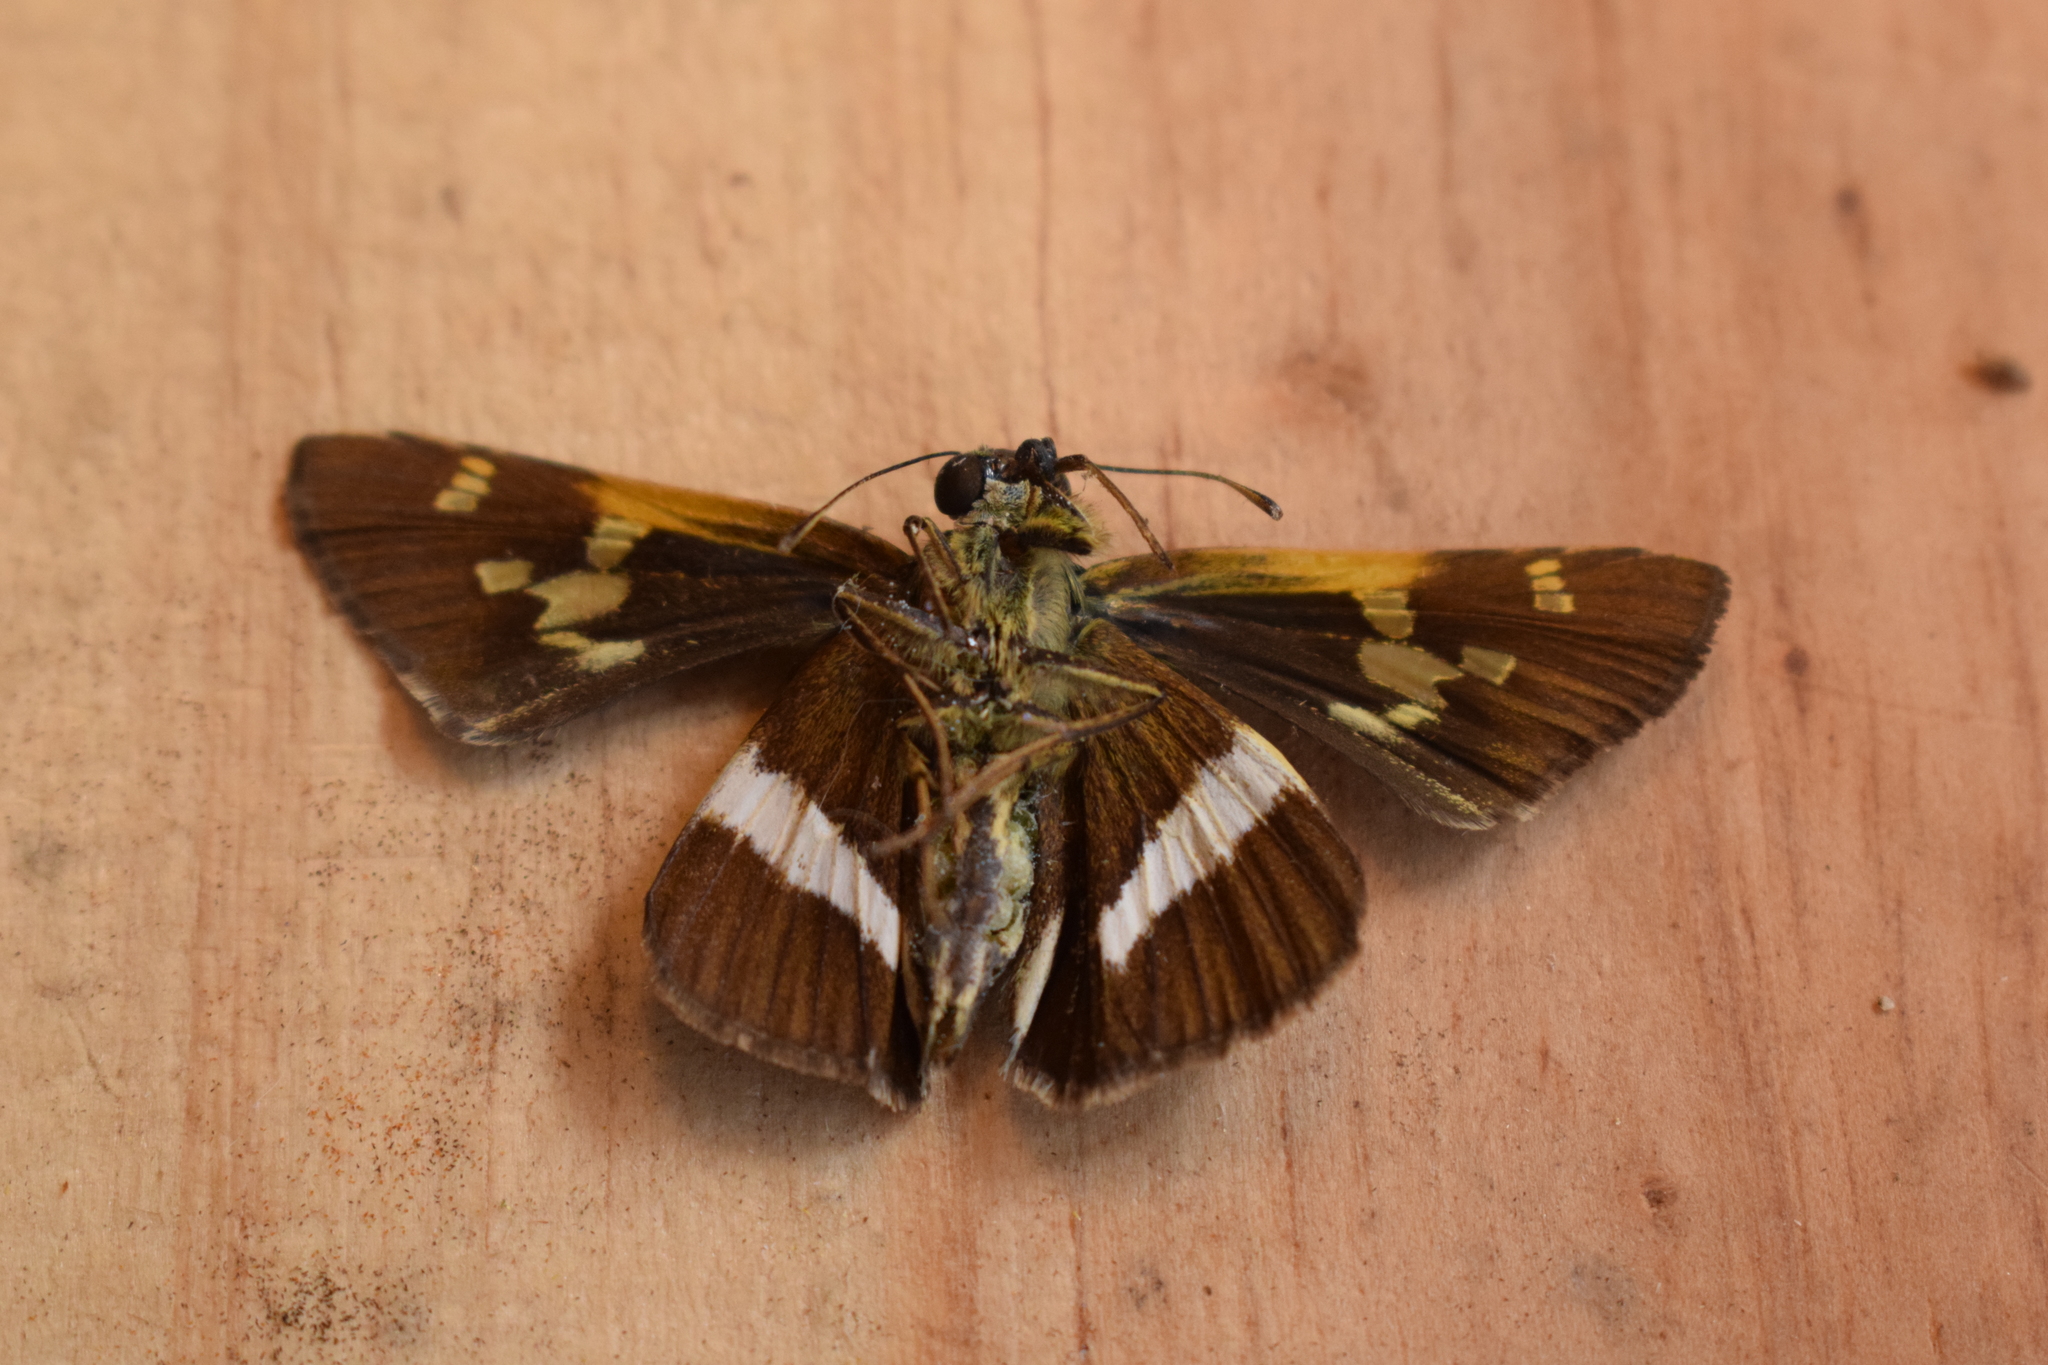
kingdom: Animalia
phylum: Arthropoda
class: Insecta
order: Lepidoptera
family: Hesperiidae
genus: Oxynthes
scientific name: Oxynthes corusca
